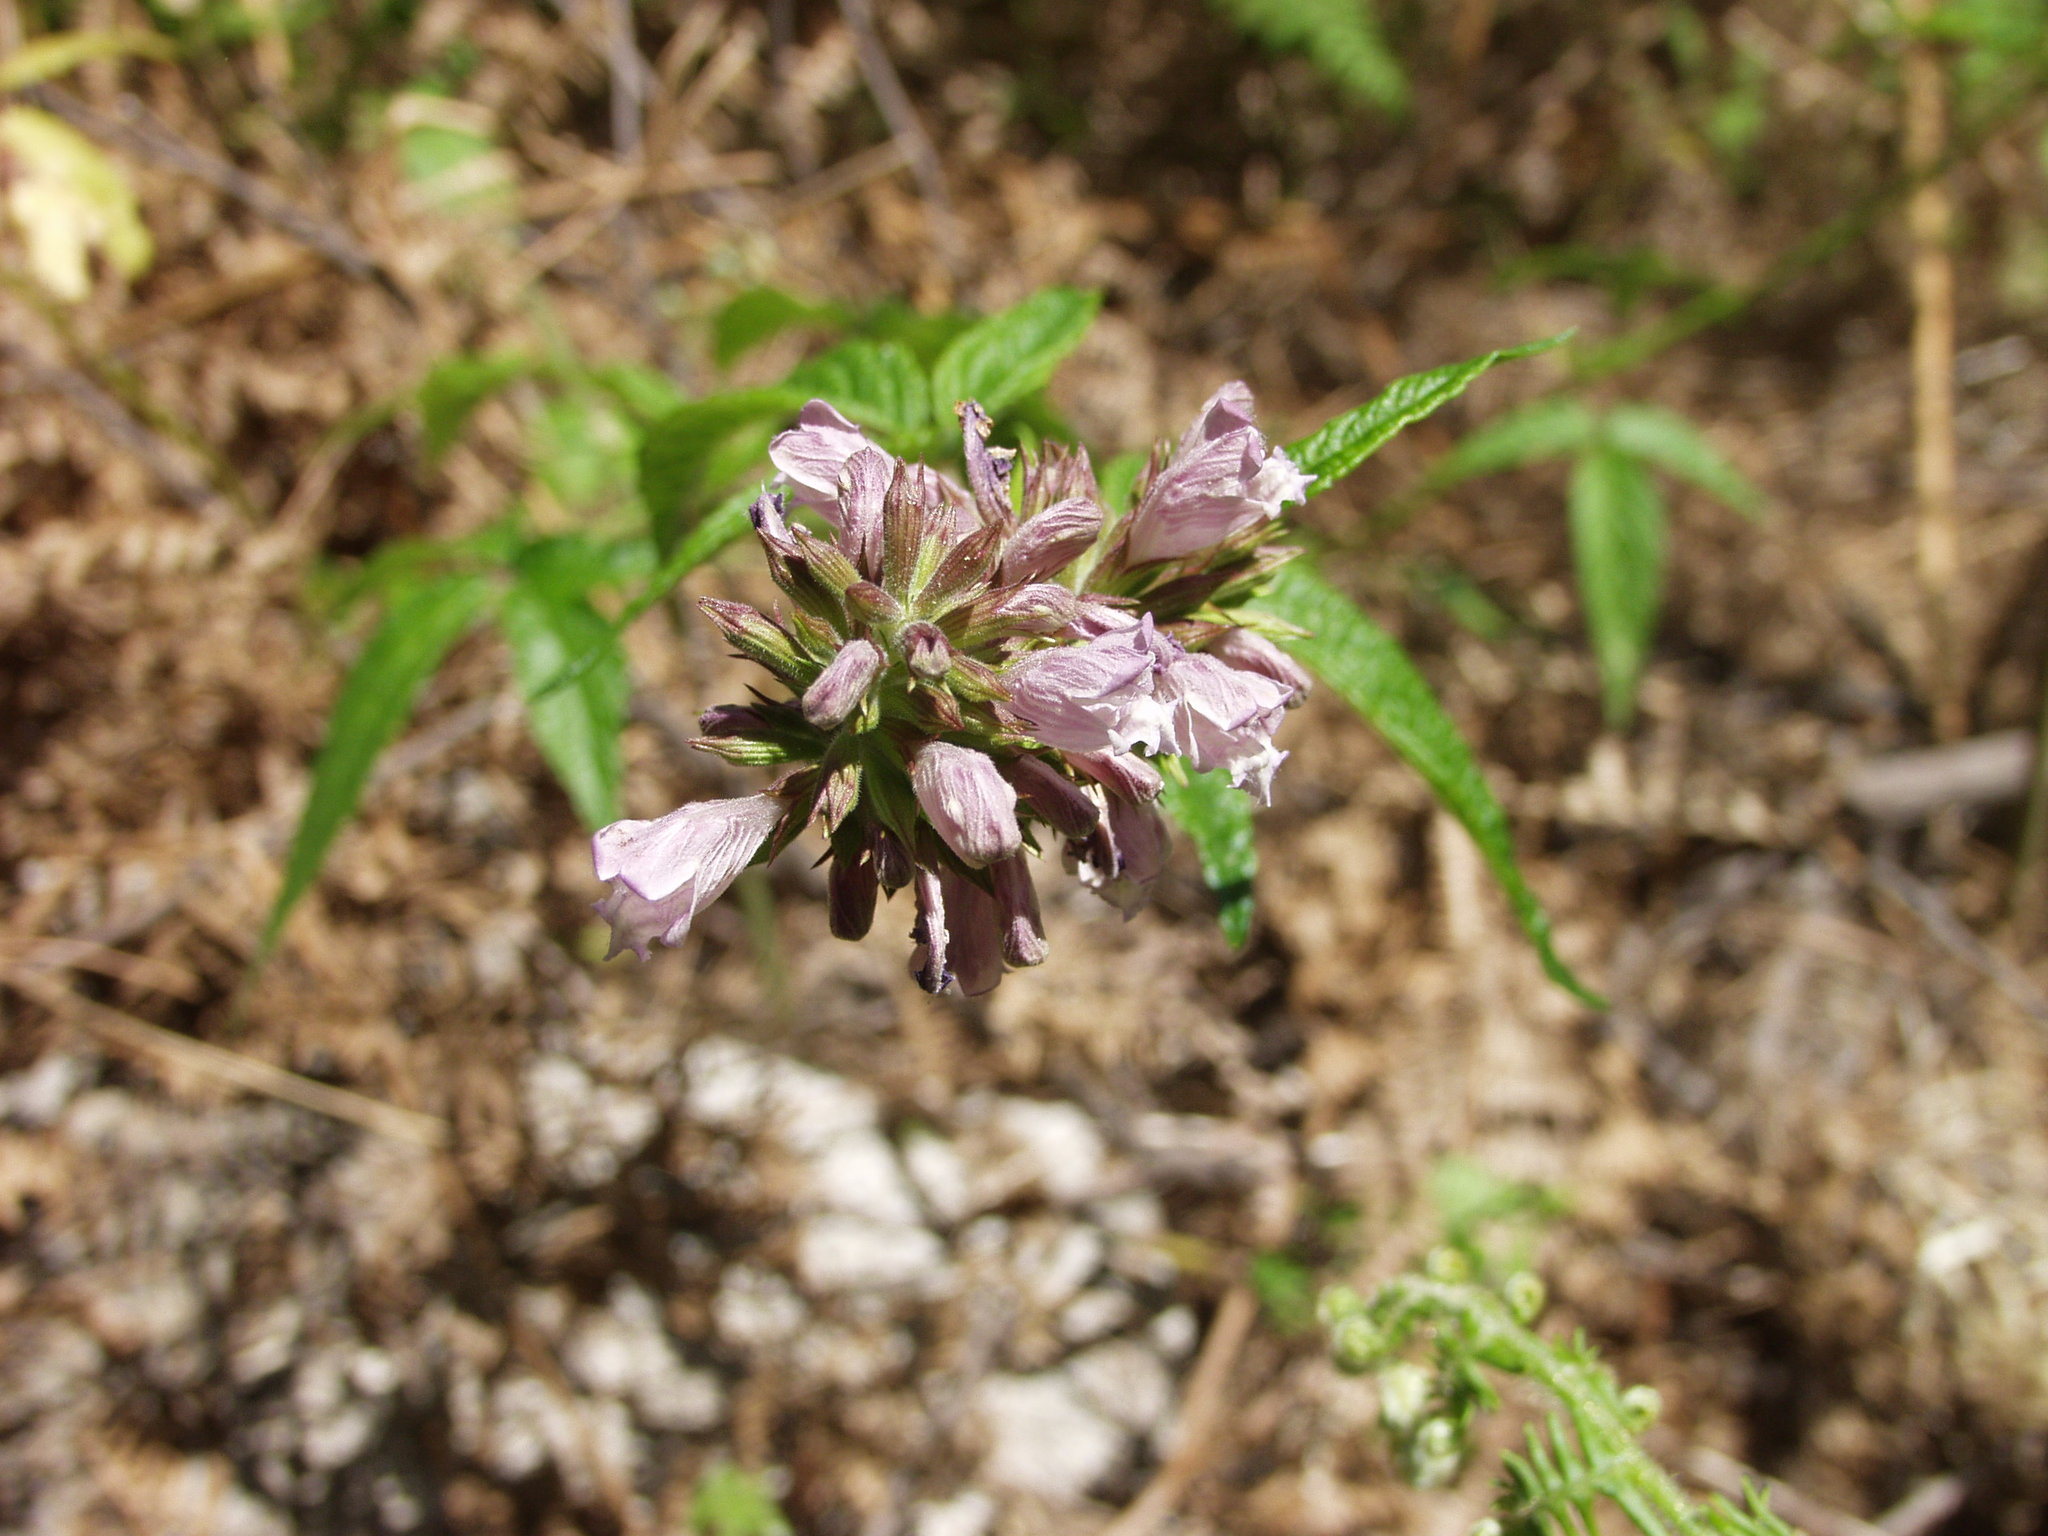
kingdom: Plantae
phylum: Tracheophyta
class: Magnoliopsida
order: Lamiales
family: Lamiaceae
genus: Cedronella
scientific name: Cedronella canariensis
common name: Canary islands balm
